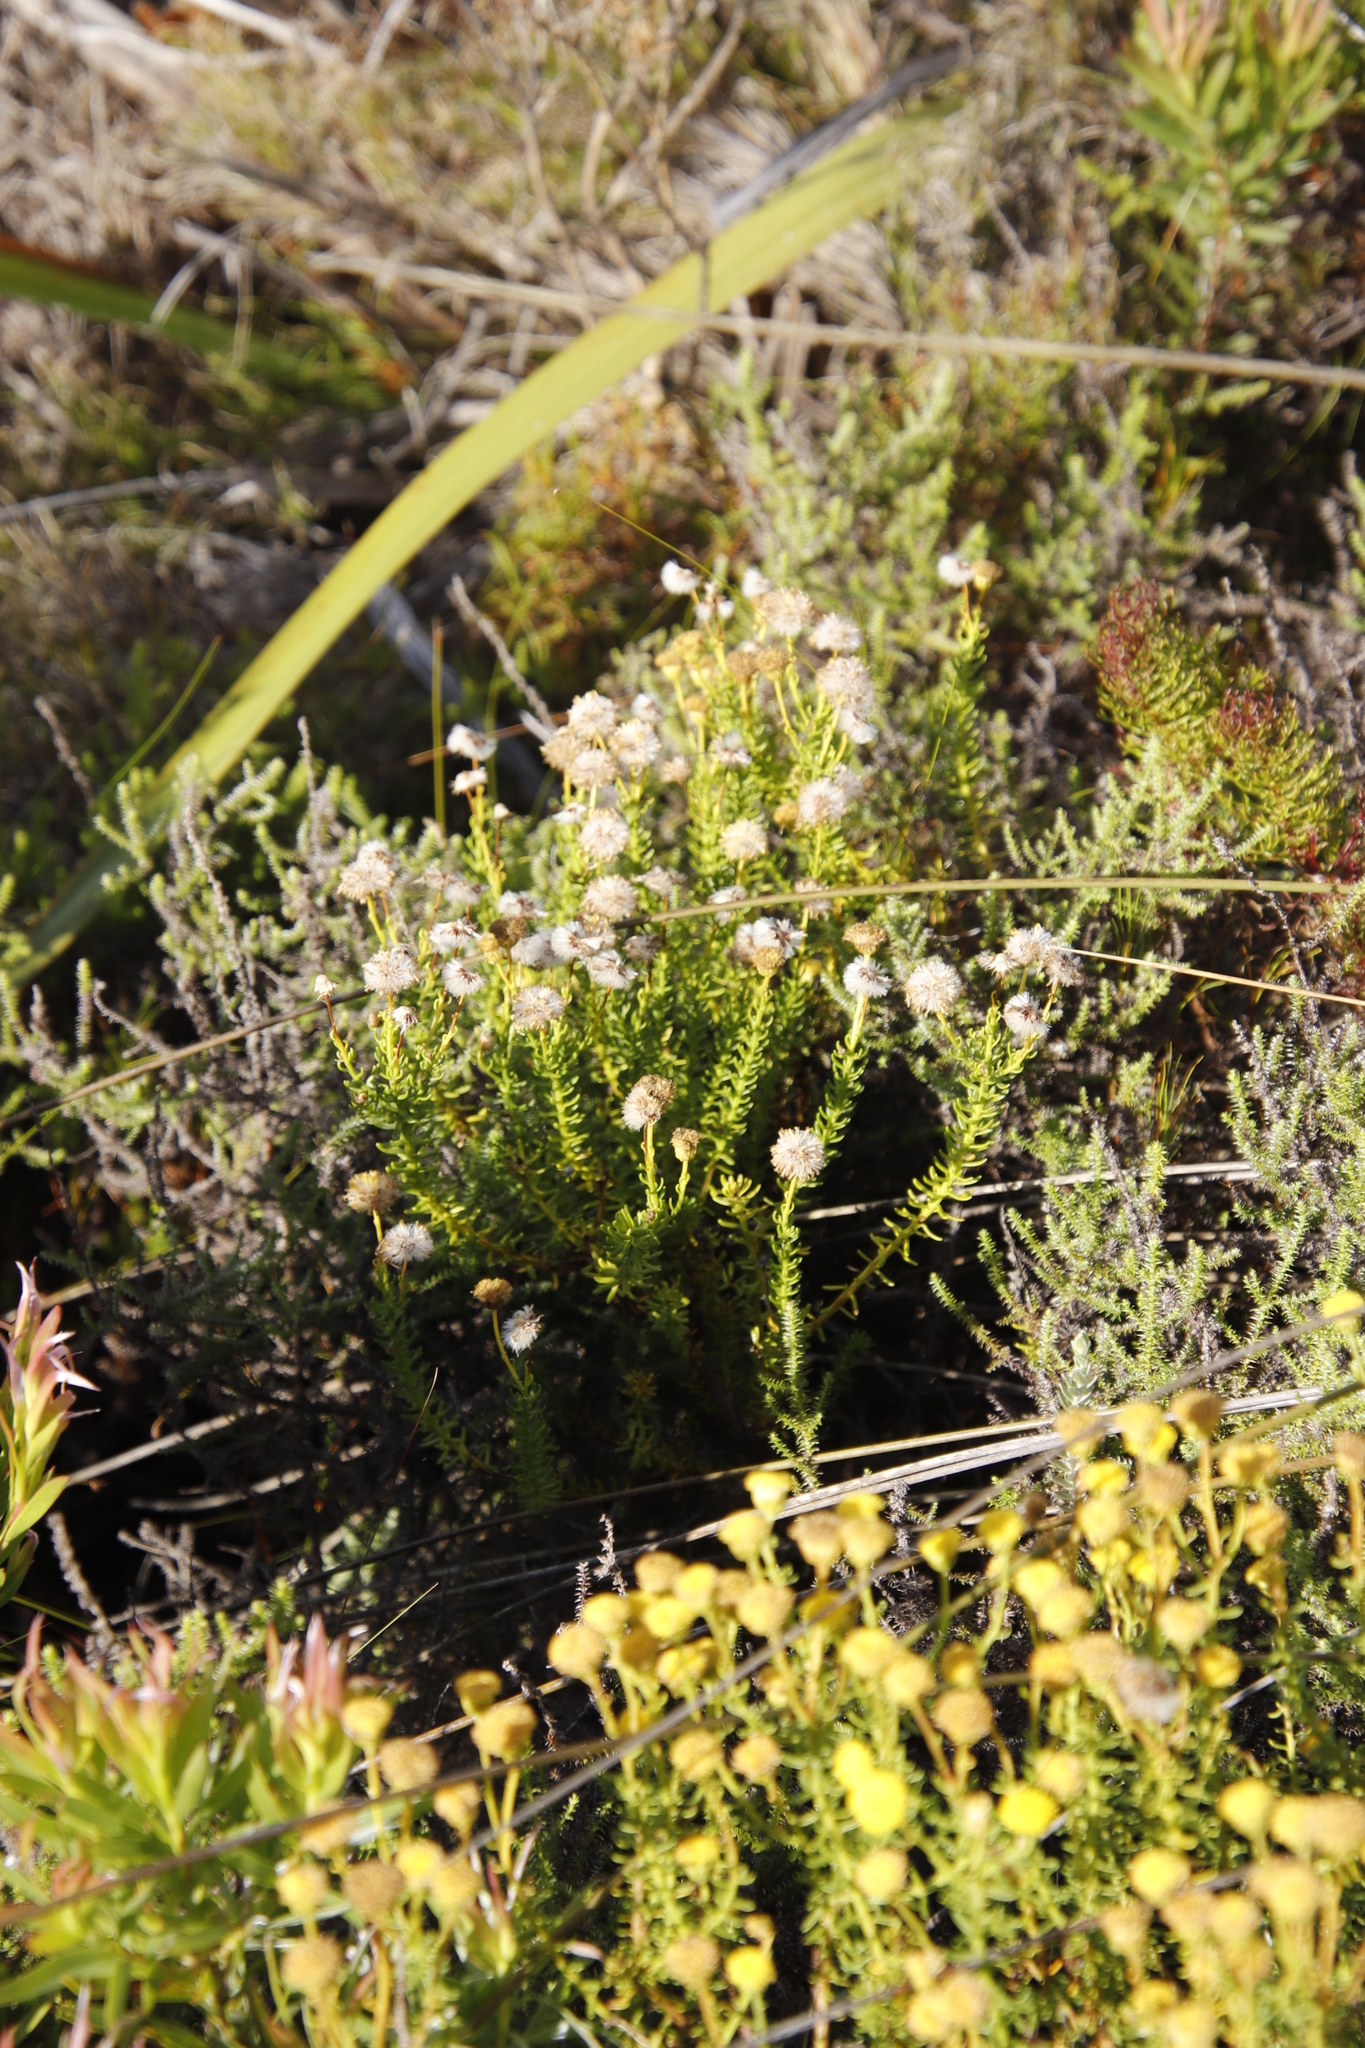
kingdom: Plantae
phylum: Tracheophyta
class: Magnoliopsida
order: Asterales
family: Asteraceae
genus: Chrysocoma
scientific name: Chrysocoma cernua
